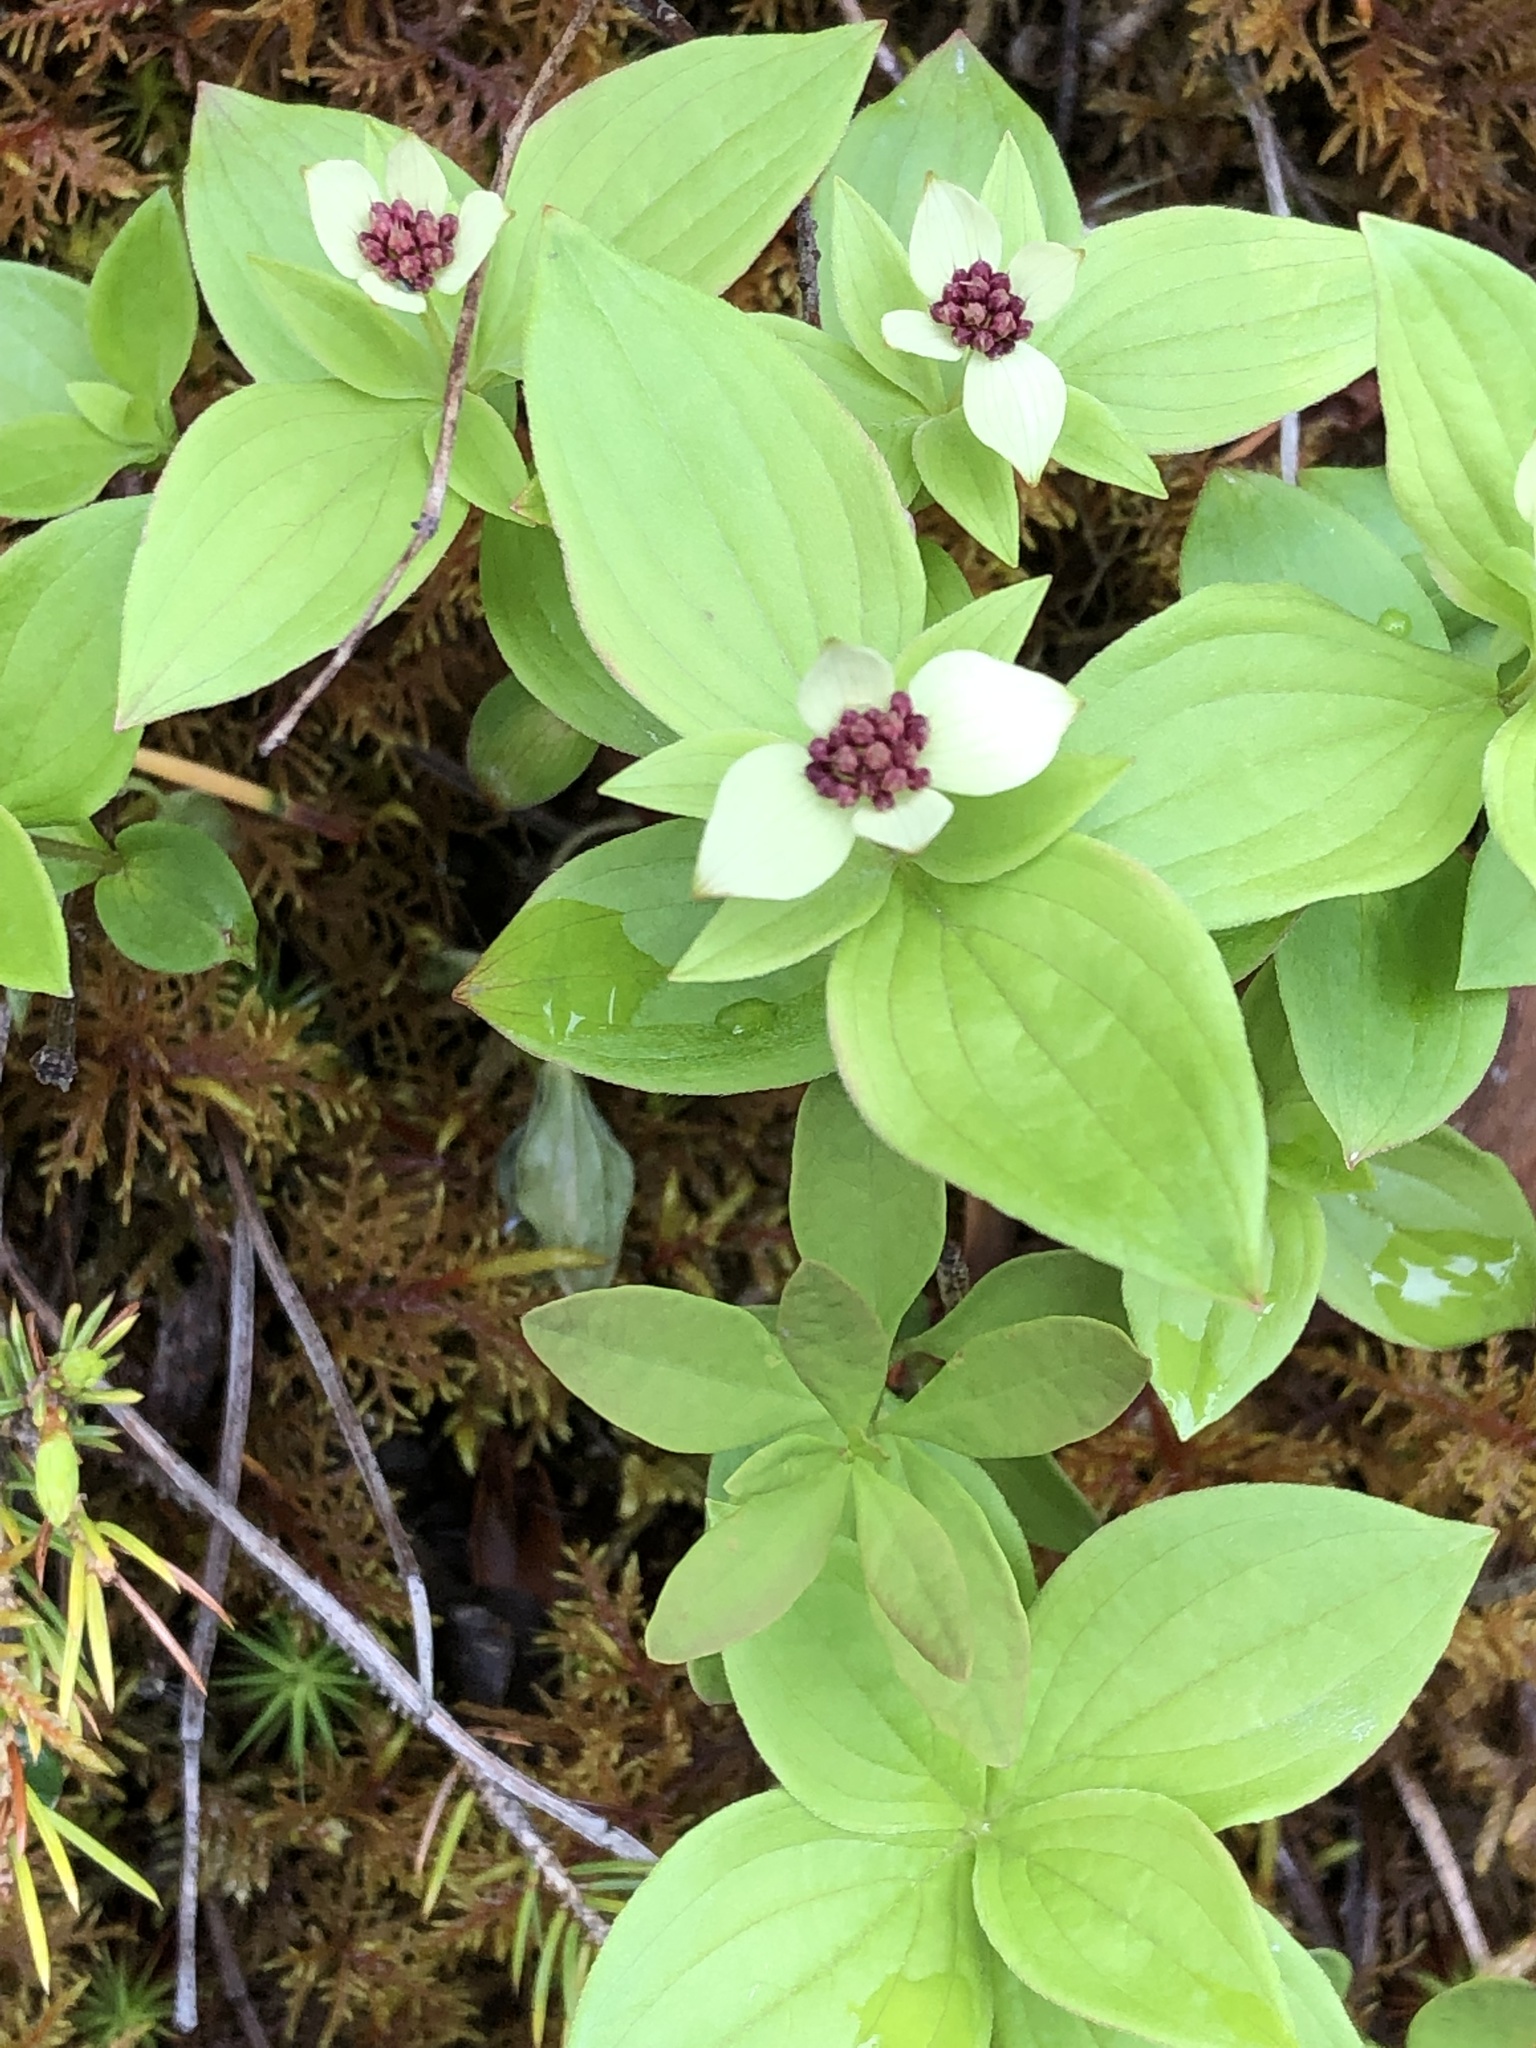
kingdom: Plantae
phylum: Tracheophyta
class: Magnoliopsida
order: Cornales
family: Cornaceae
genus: Cornus
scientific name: Cornus unalaschkensis
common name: Alaska bunchberry
